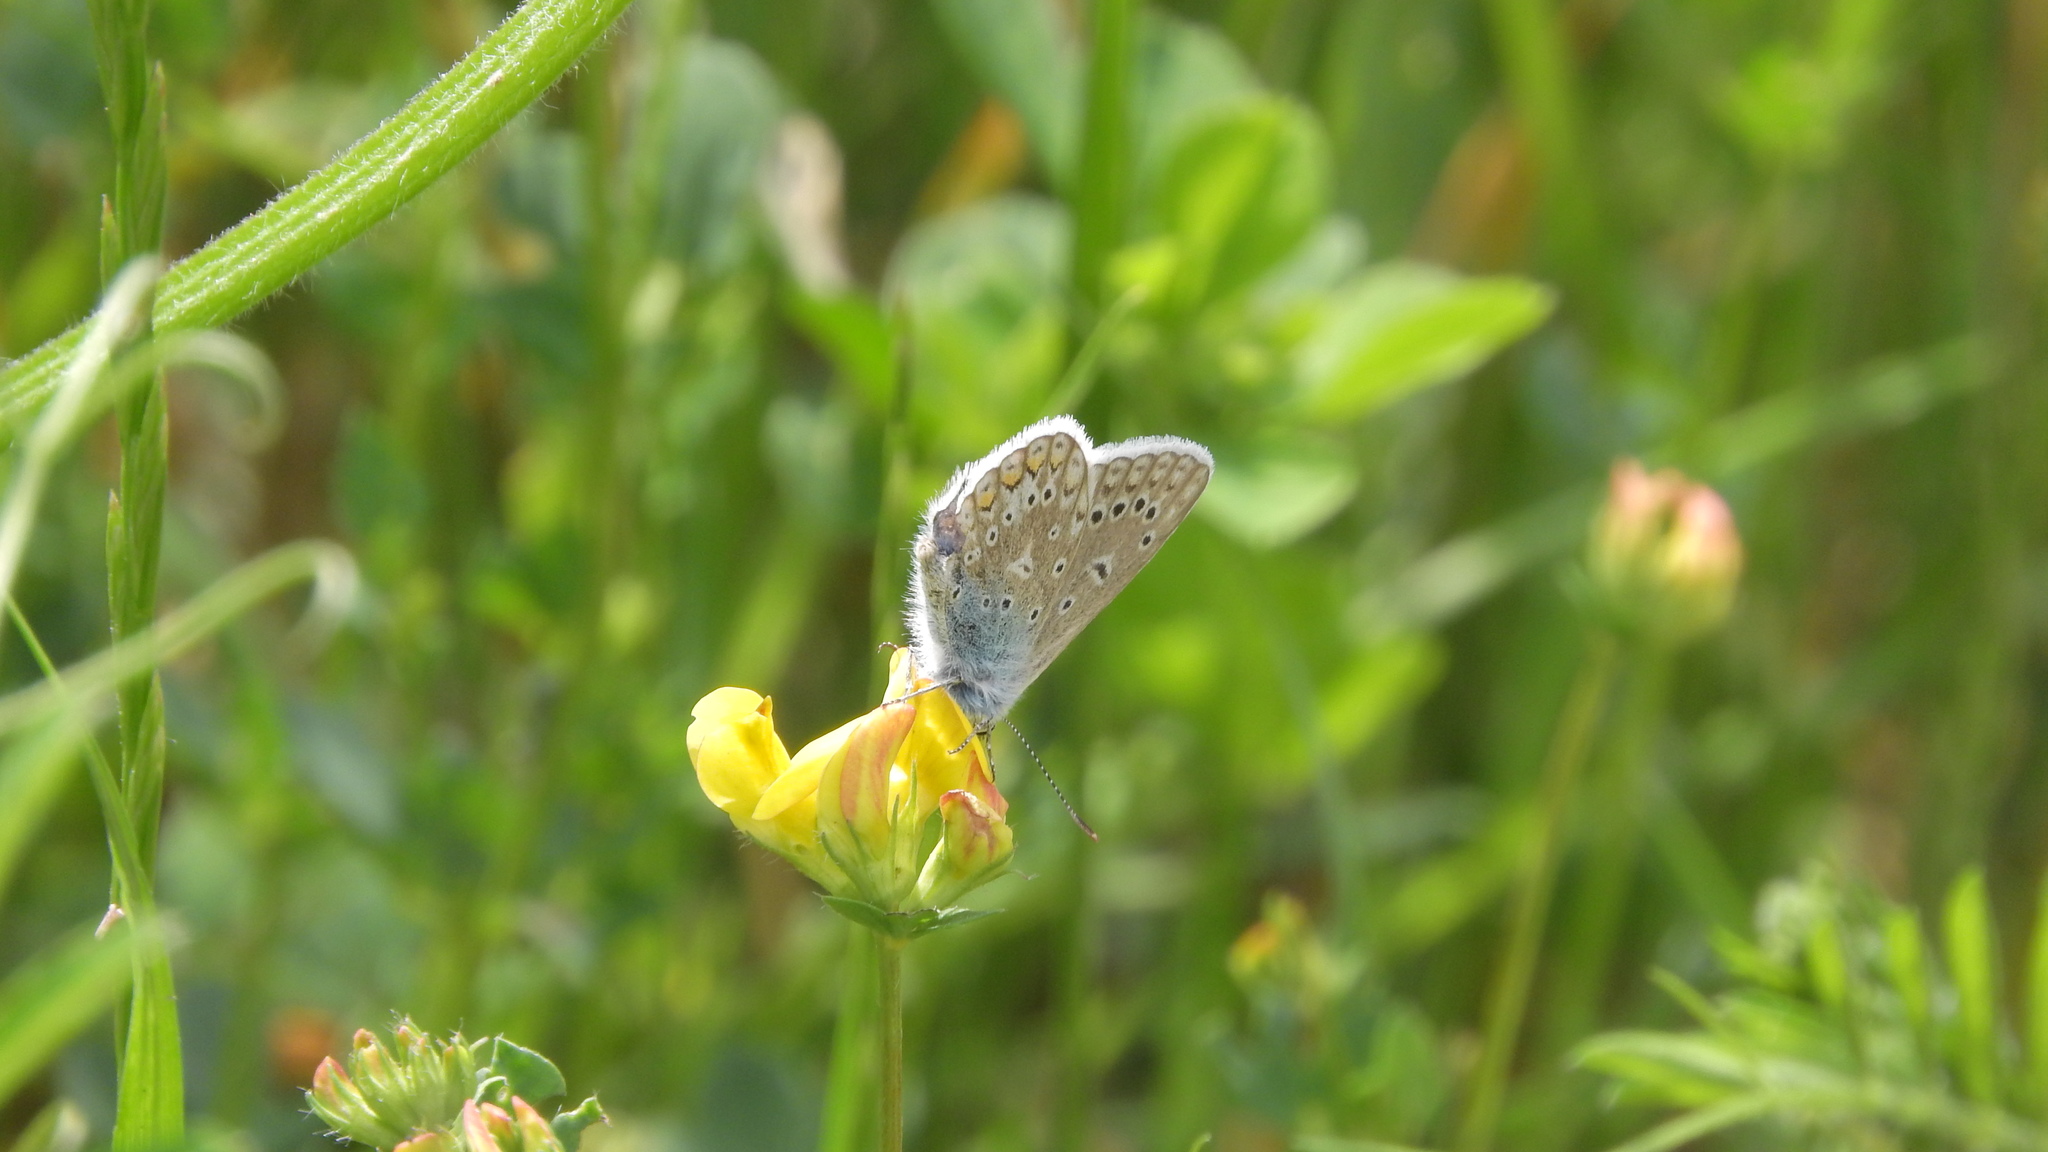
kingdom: Animalia
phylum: Arthropoda
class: Insecta
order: Lepidoptera
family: Lycaenidae
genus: Polyommatus
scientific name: Polyommatus icarus
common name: Common blue
